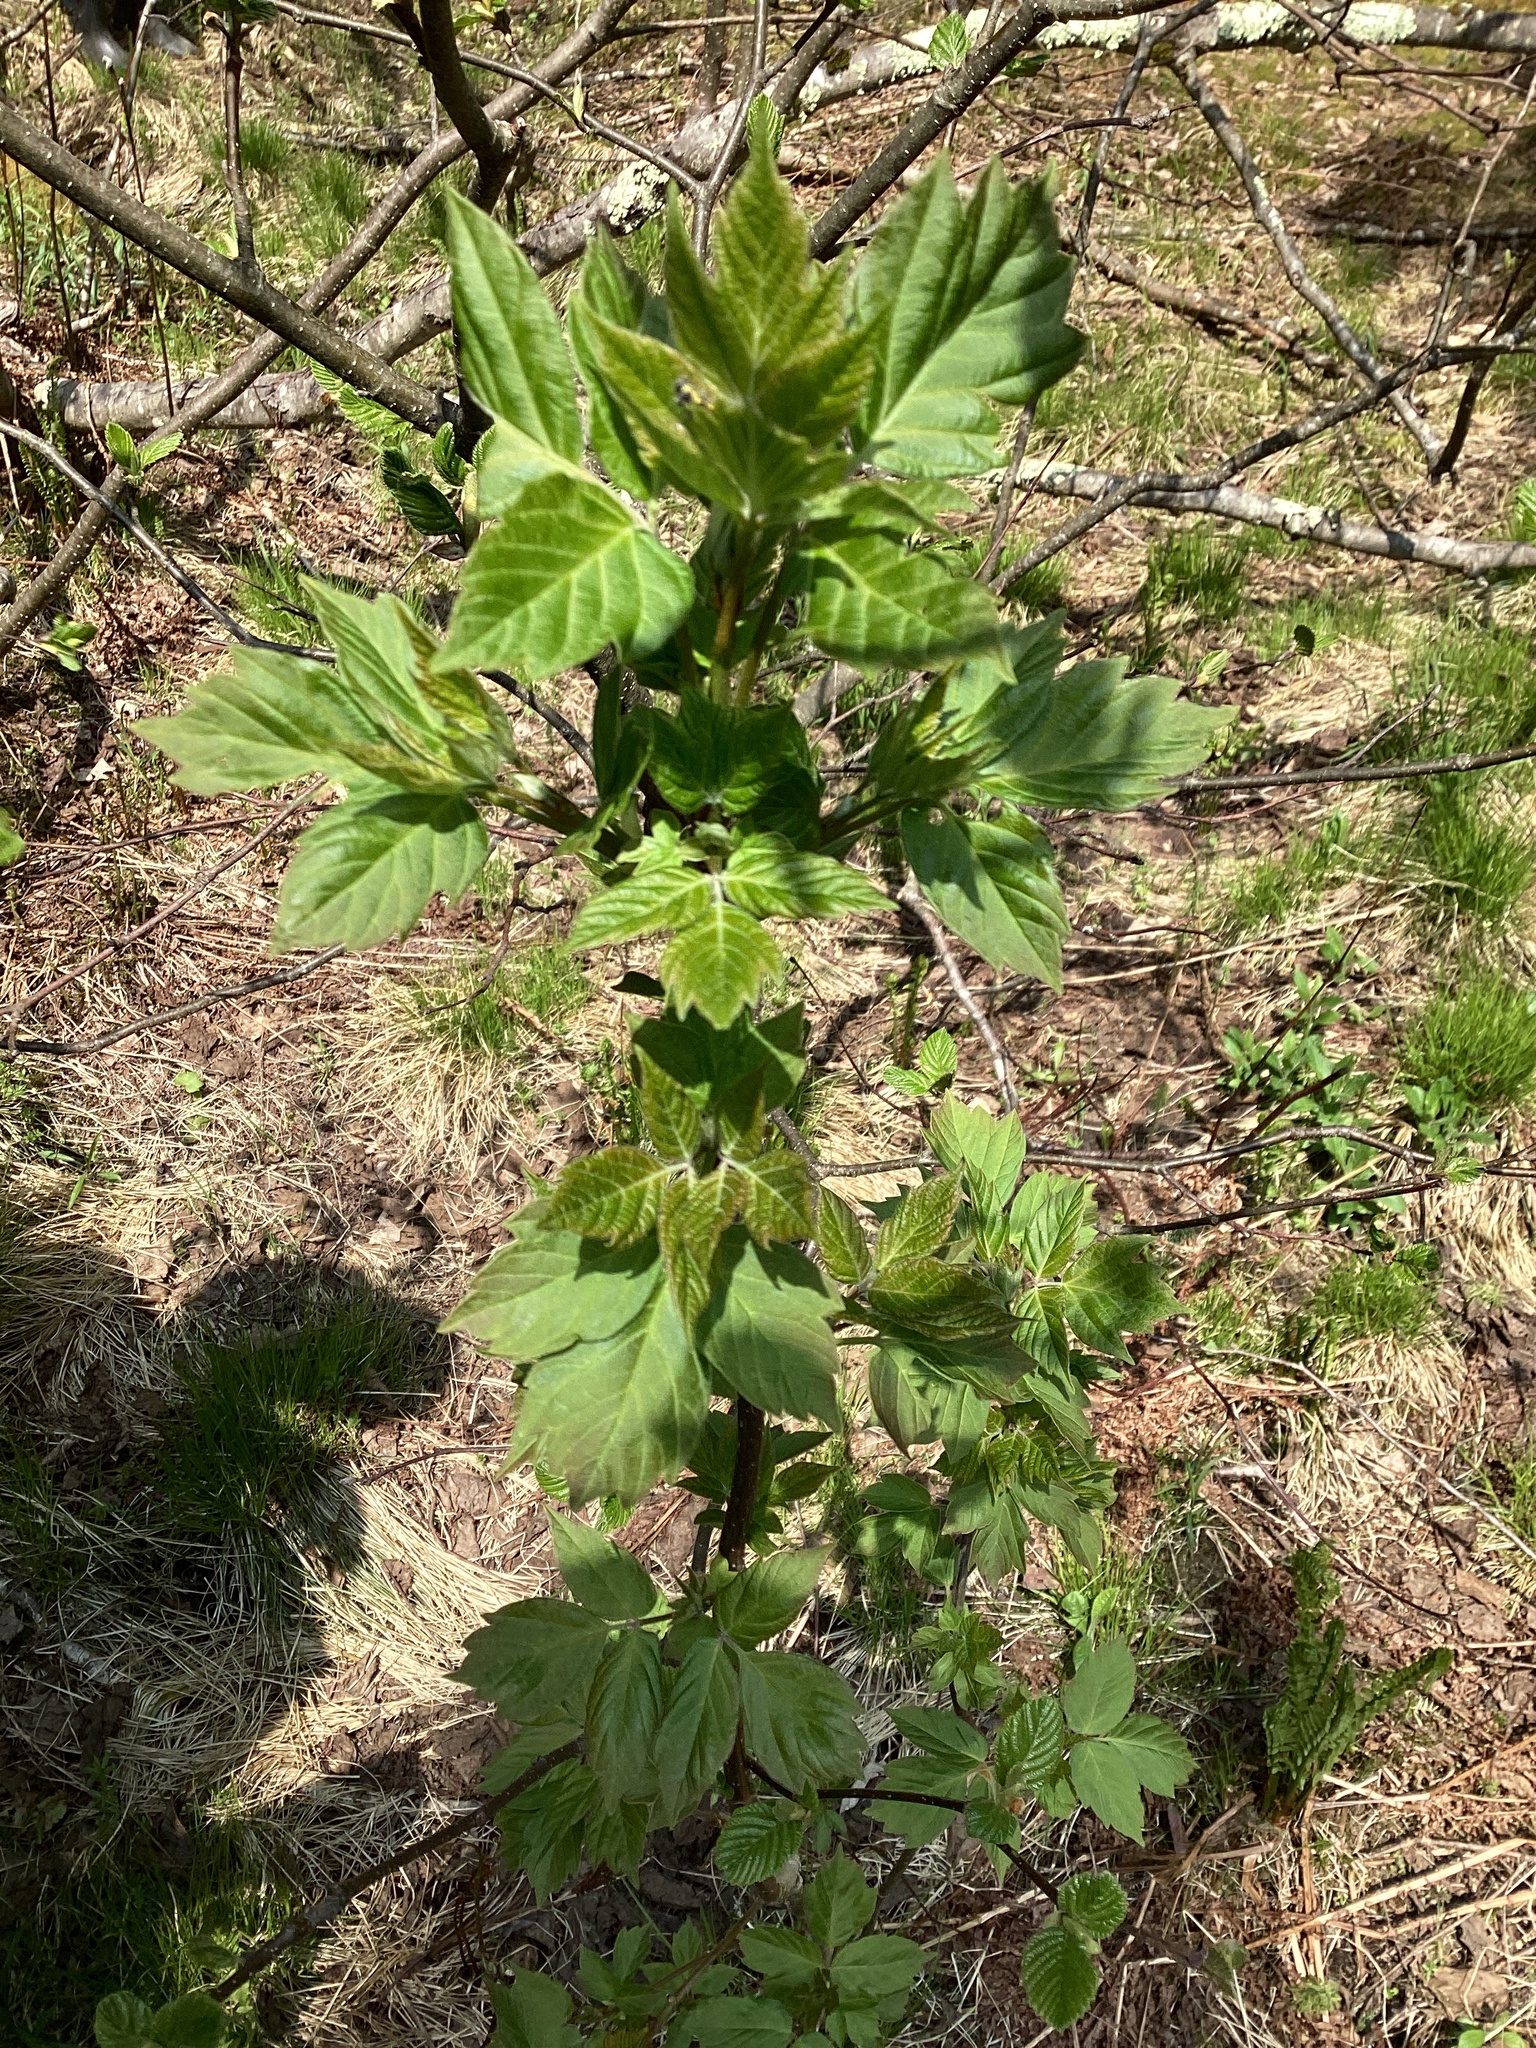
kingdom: Plantae
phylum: Tracheophyta
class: Magnoliopsida
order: Sapindales
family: Sapindaceae
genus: Acer
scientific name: Acer negundo
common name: Ashleaf maple
